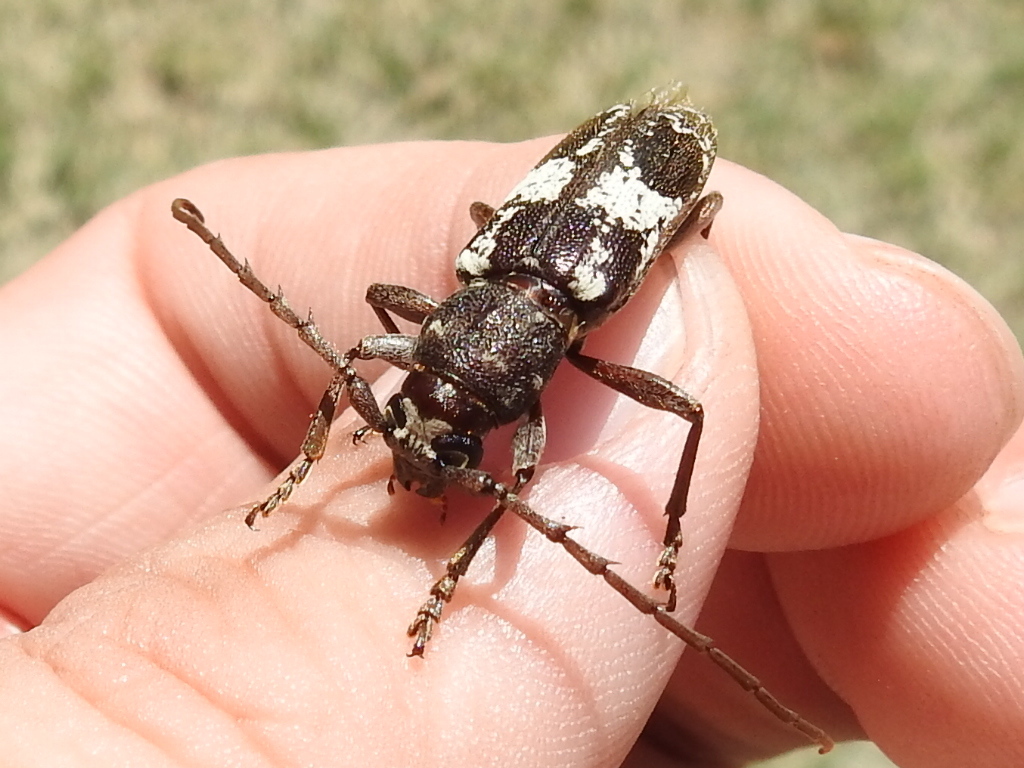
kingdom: Animalia
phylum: Arthropoda
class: Insecta
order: Coleoptera
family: Cerambycidae
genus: Enaphalodes
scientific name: Enaphalodes taeniatus
